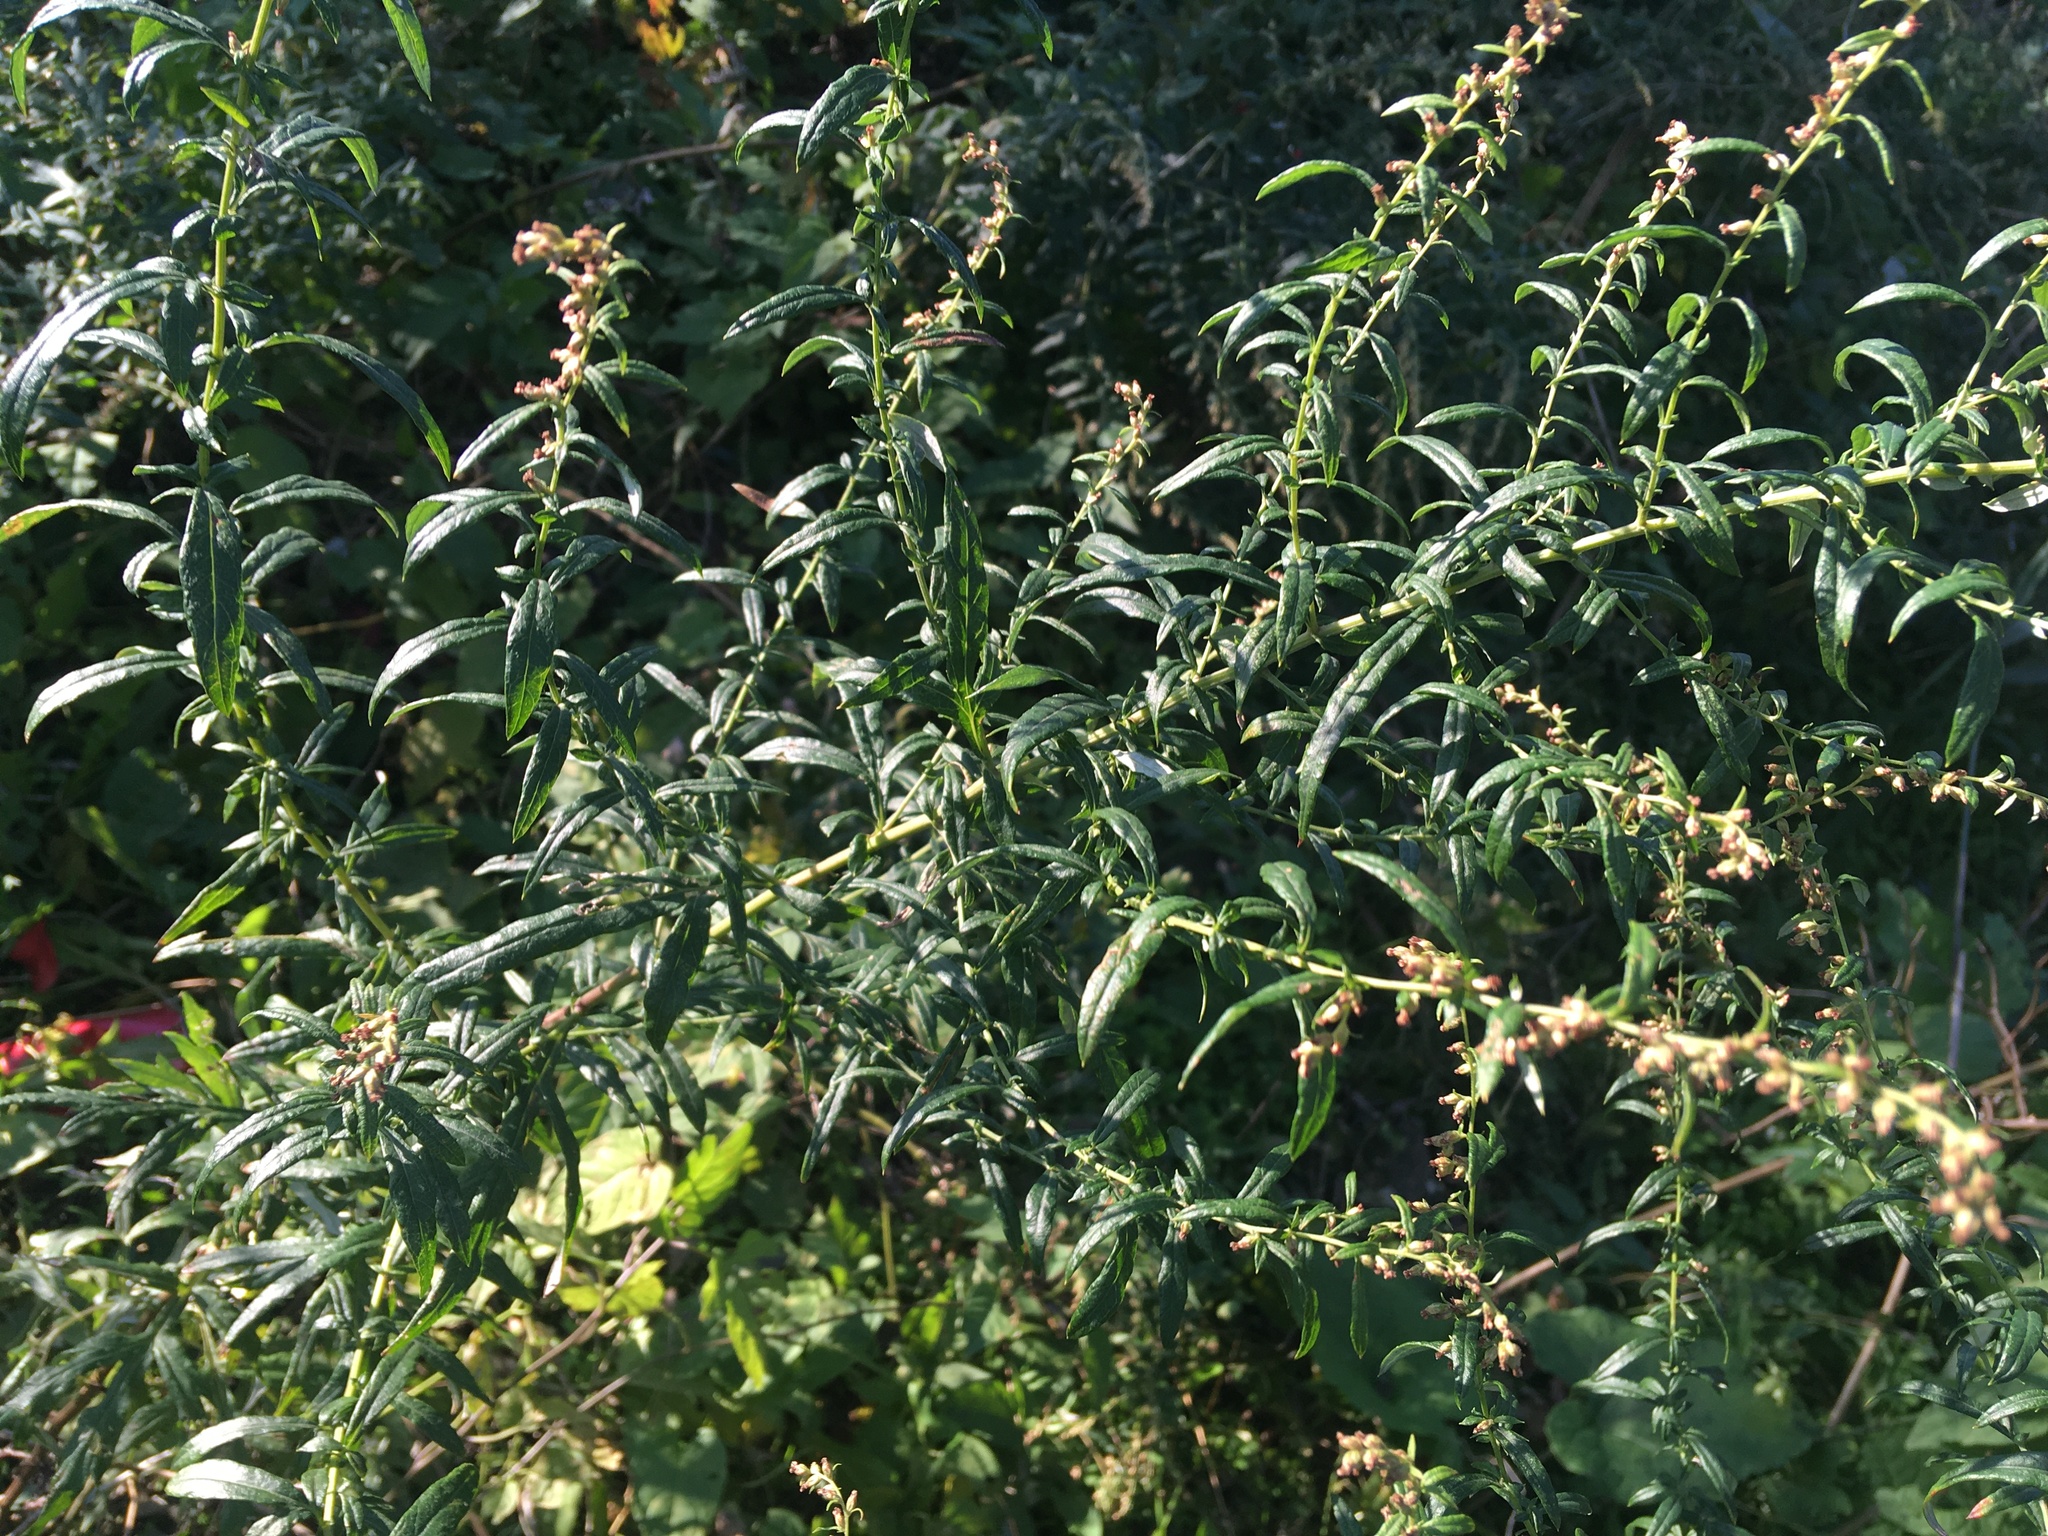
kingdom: Plantae
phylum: Tracheophyta
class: Magnoliopsida
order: Asterales
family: Asteraceae
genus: Artemisia
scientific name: Artemisia vulgaris
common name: Mugwort
